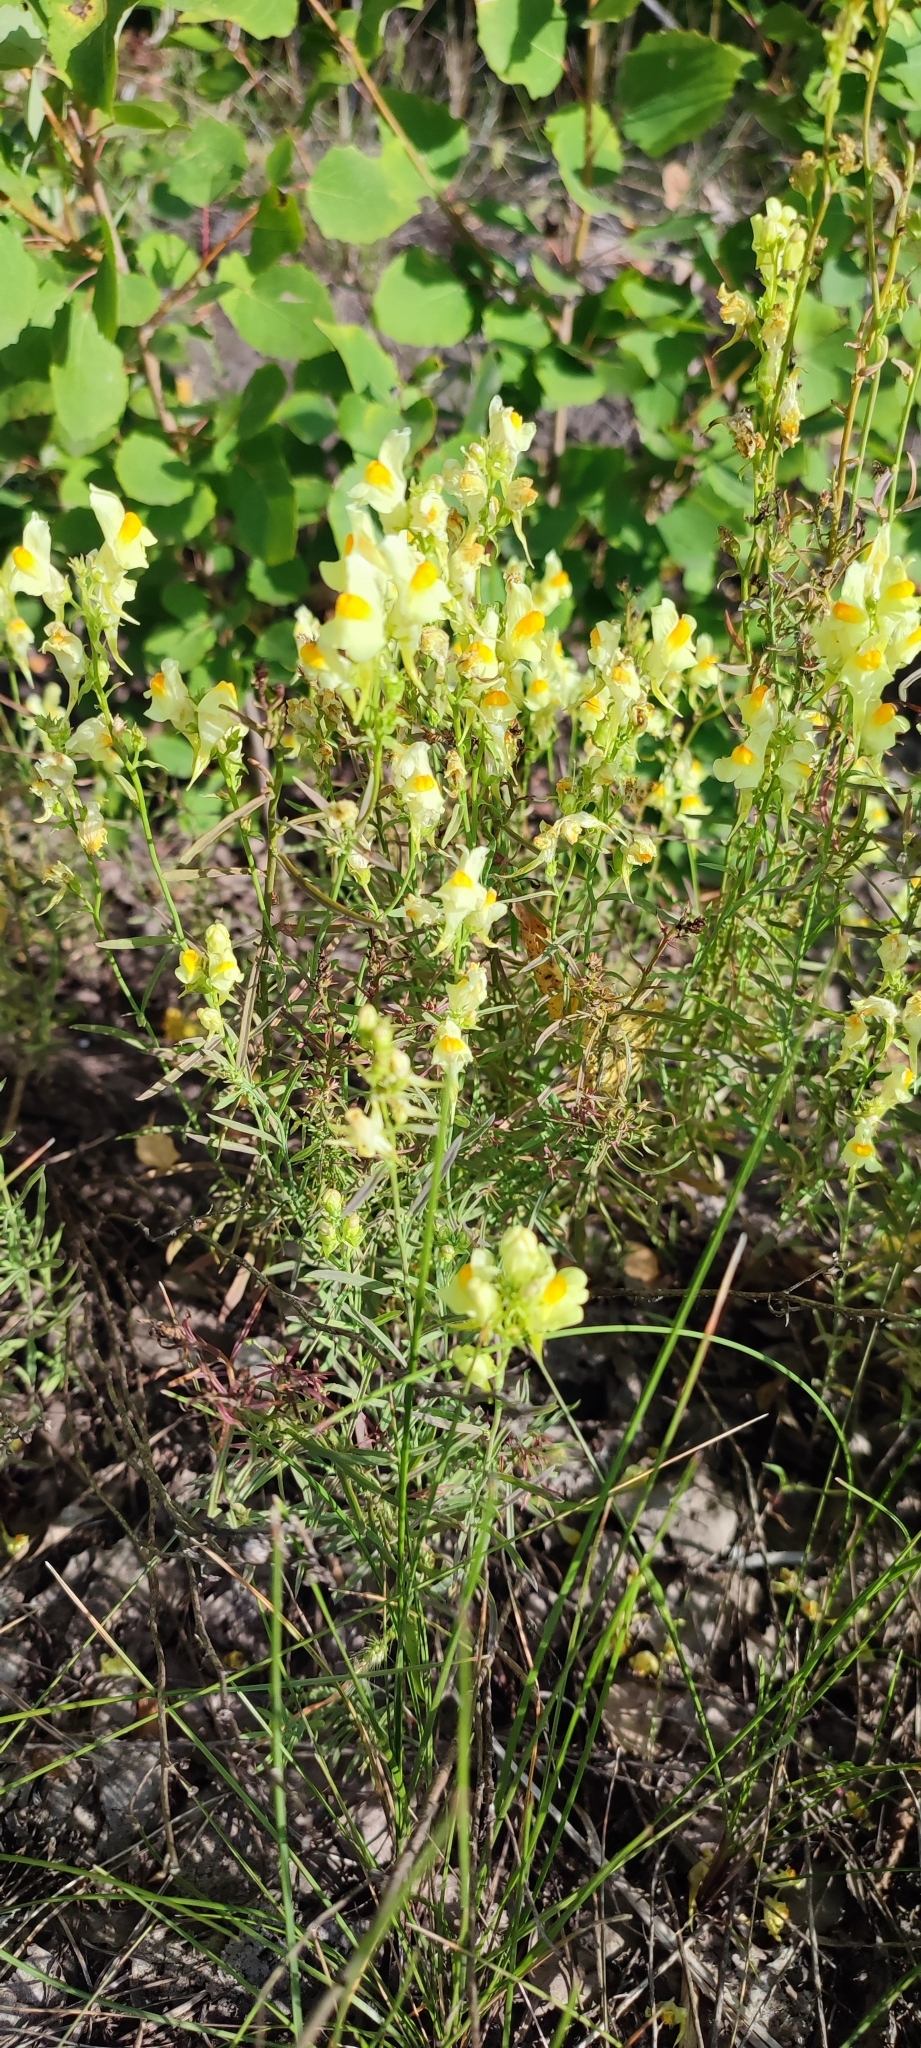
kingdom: Plantae
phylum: Tracheophyta
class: Magnoliopsida
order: Lamiales
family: Plantaginaceae
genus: Linaria
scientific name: Linaria vulgaris
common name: Butter and eggs
